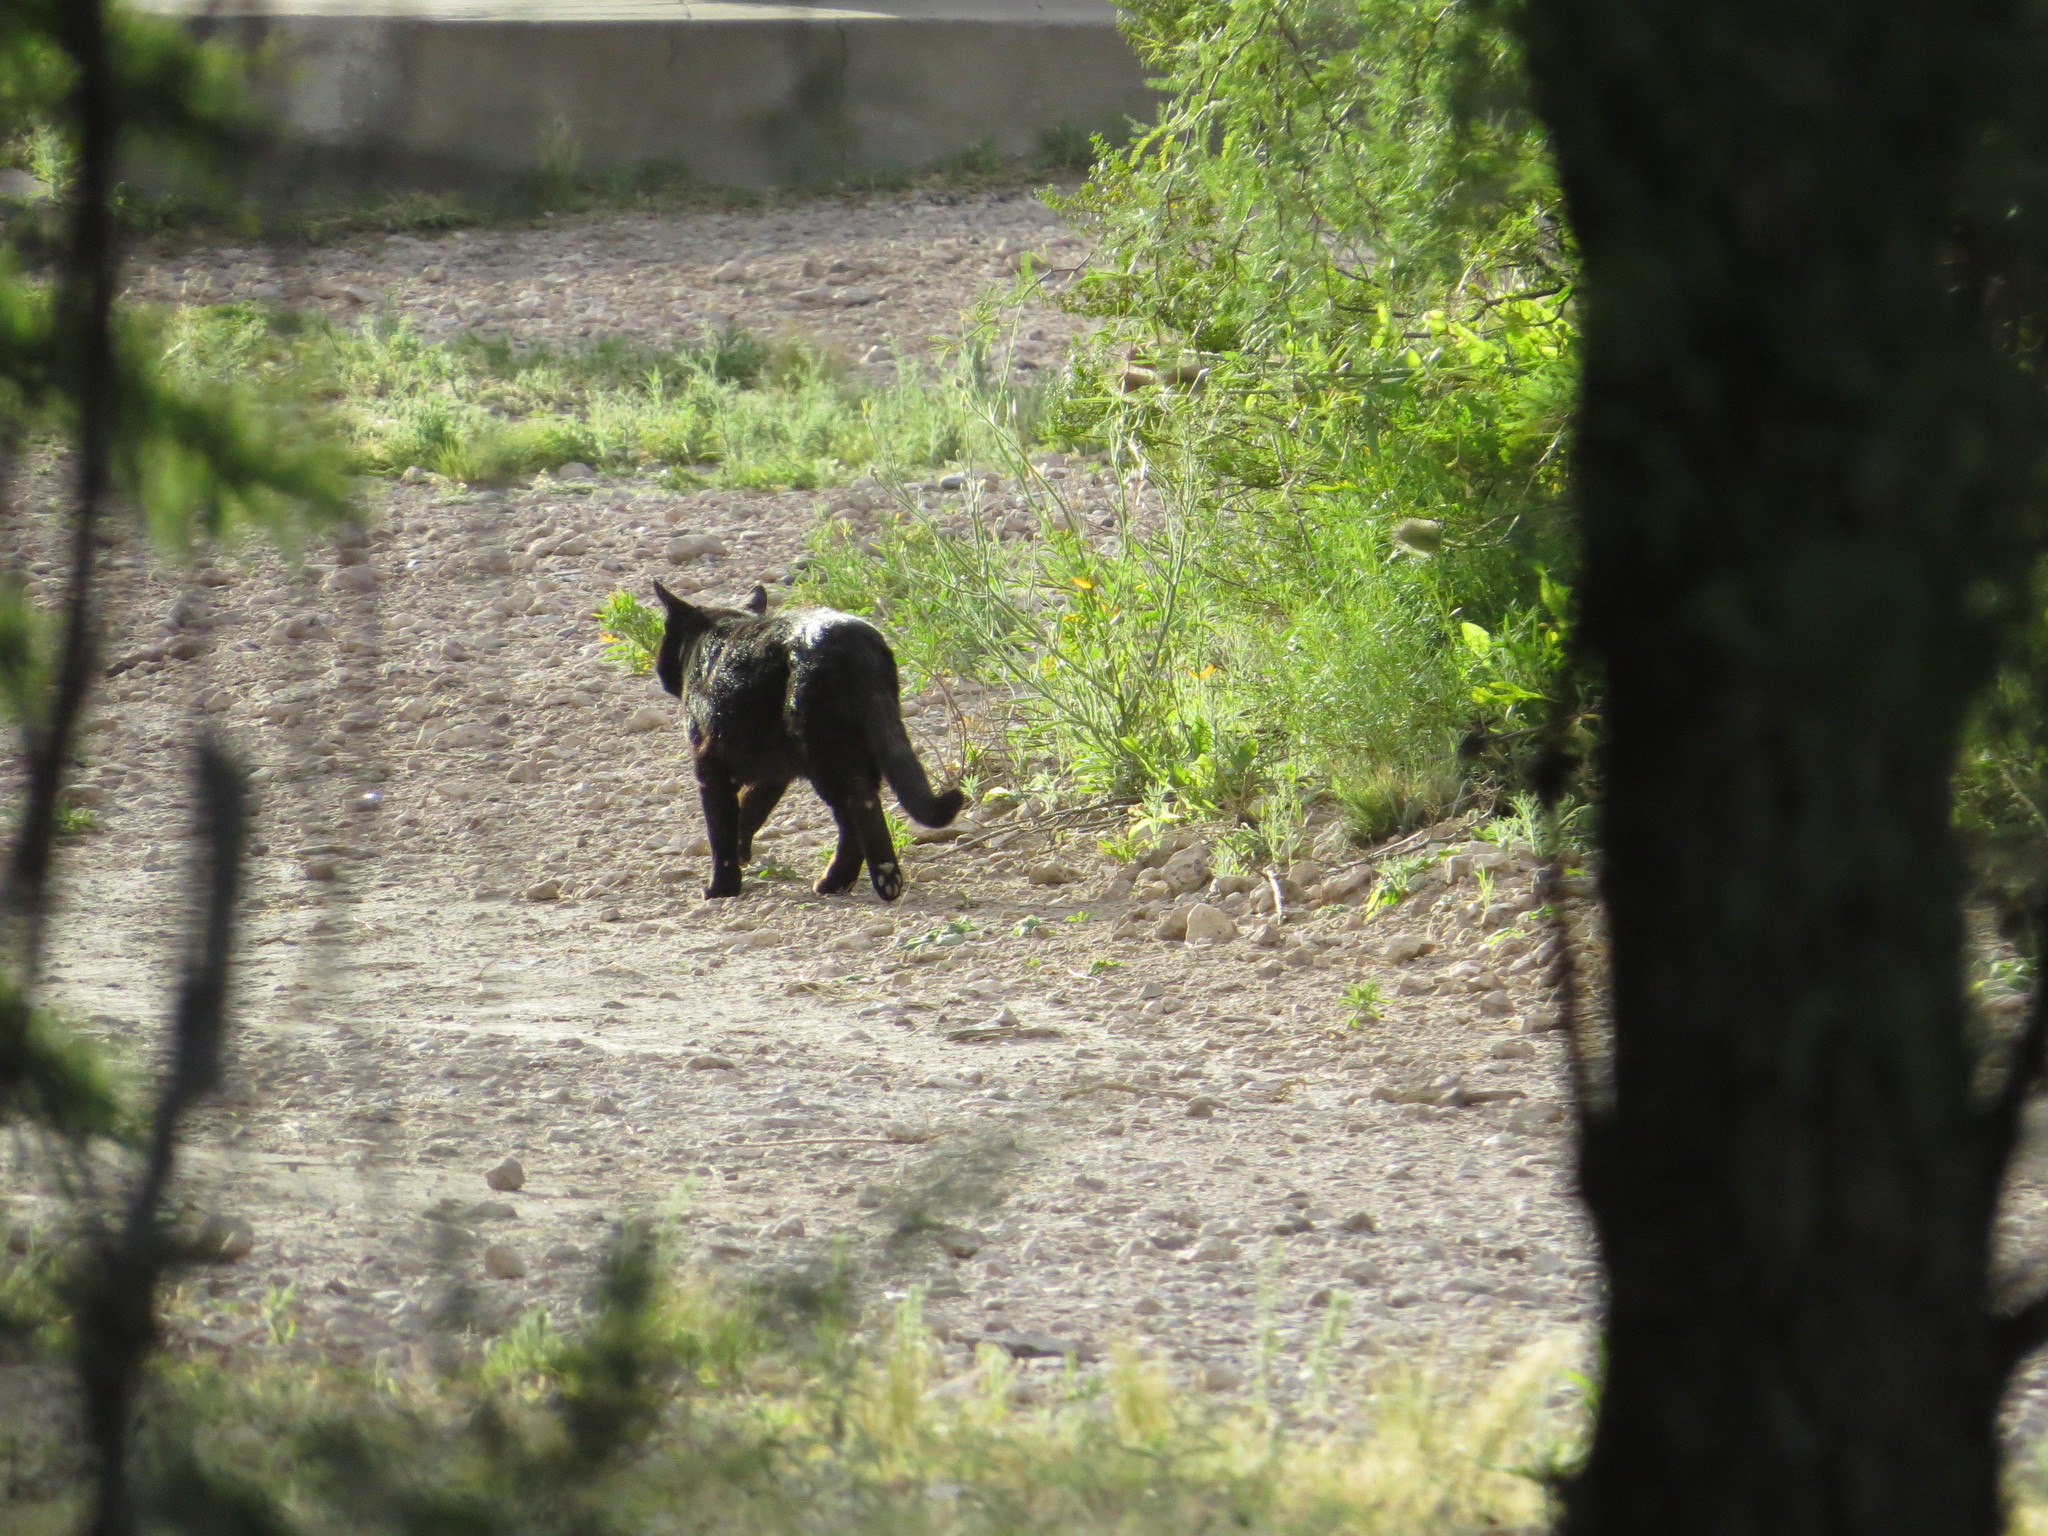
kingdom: Animalia
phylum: Chordata
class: Mammalia
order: Carnivora
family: Felidae
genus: Felis
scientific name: Felis catus
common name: Domestic cat
